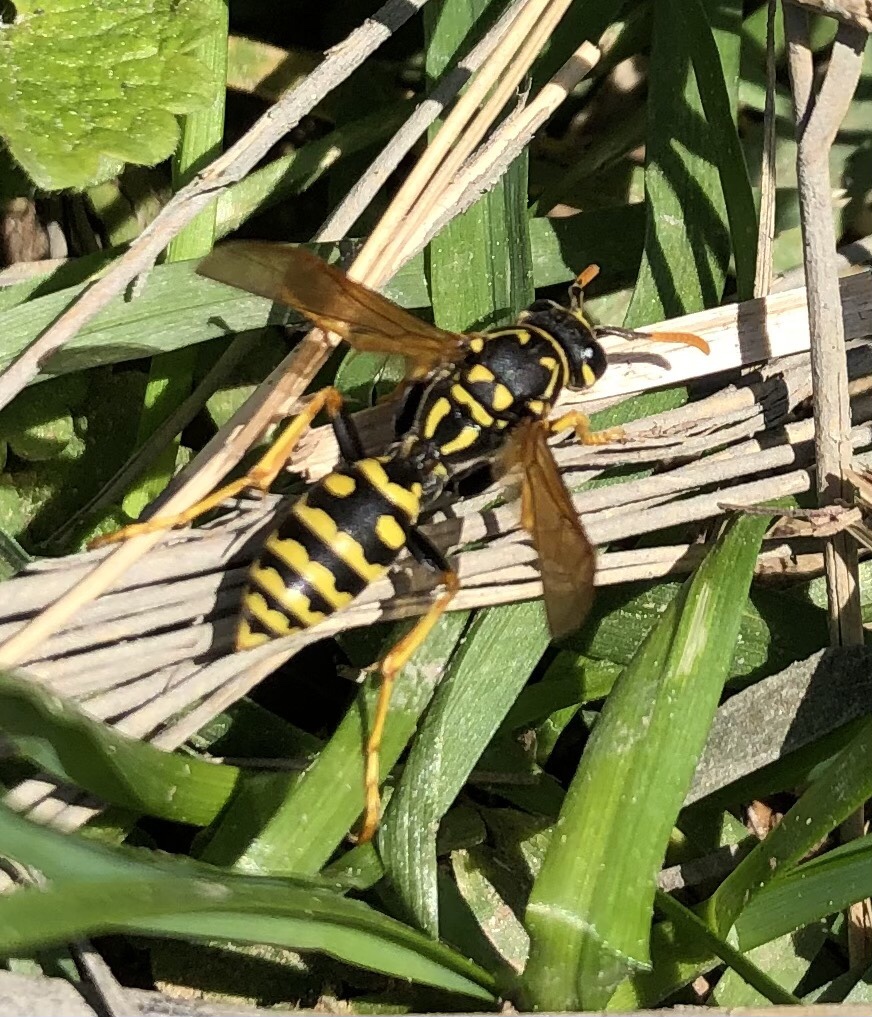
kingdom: Animalia
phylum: Arthropoda
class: Insecta
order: Hymenoptera
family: Eumenidae
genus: Polistes
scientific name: Polistes dominula
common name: Paper wasp
